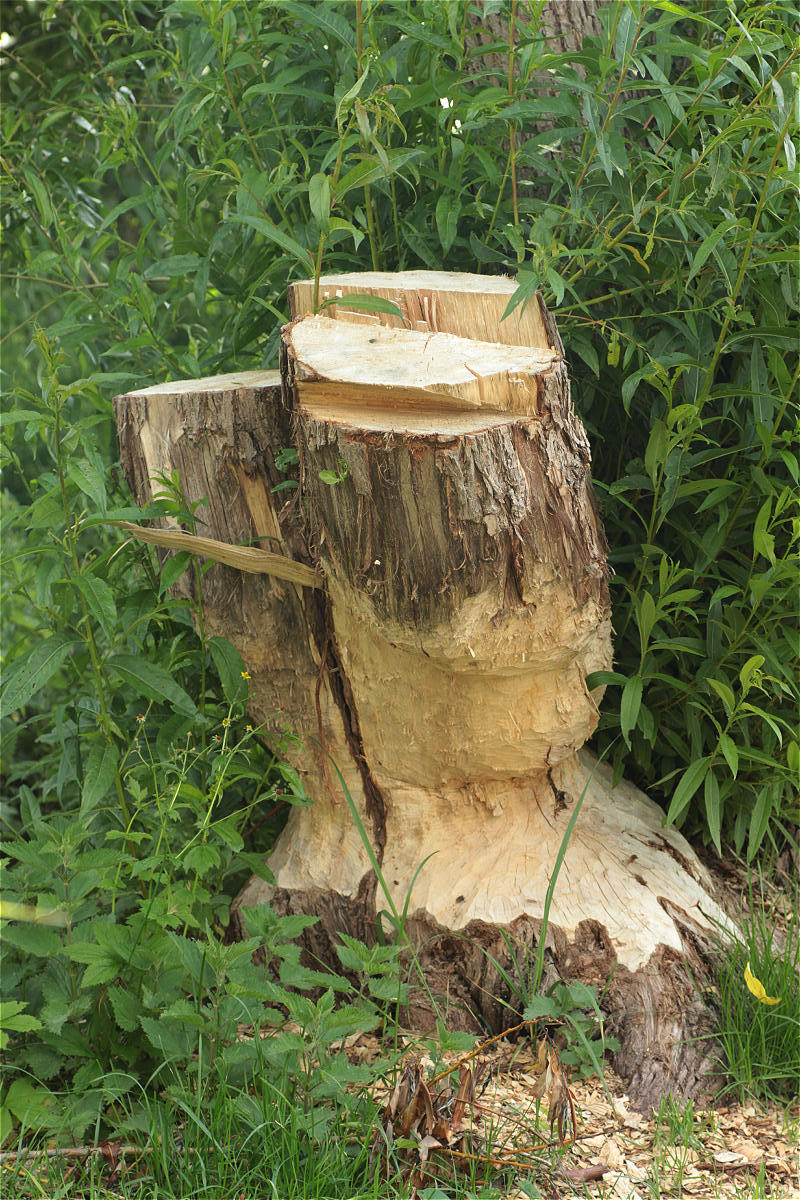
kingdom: Animalia
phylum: Chordata
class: Mammalia
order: Rodentia
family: Castoridae
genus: Castor
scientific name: Castor fiber
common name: Eurasian beaver
